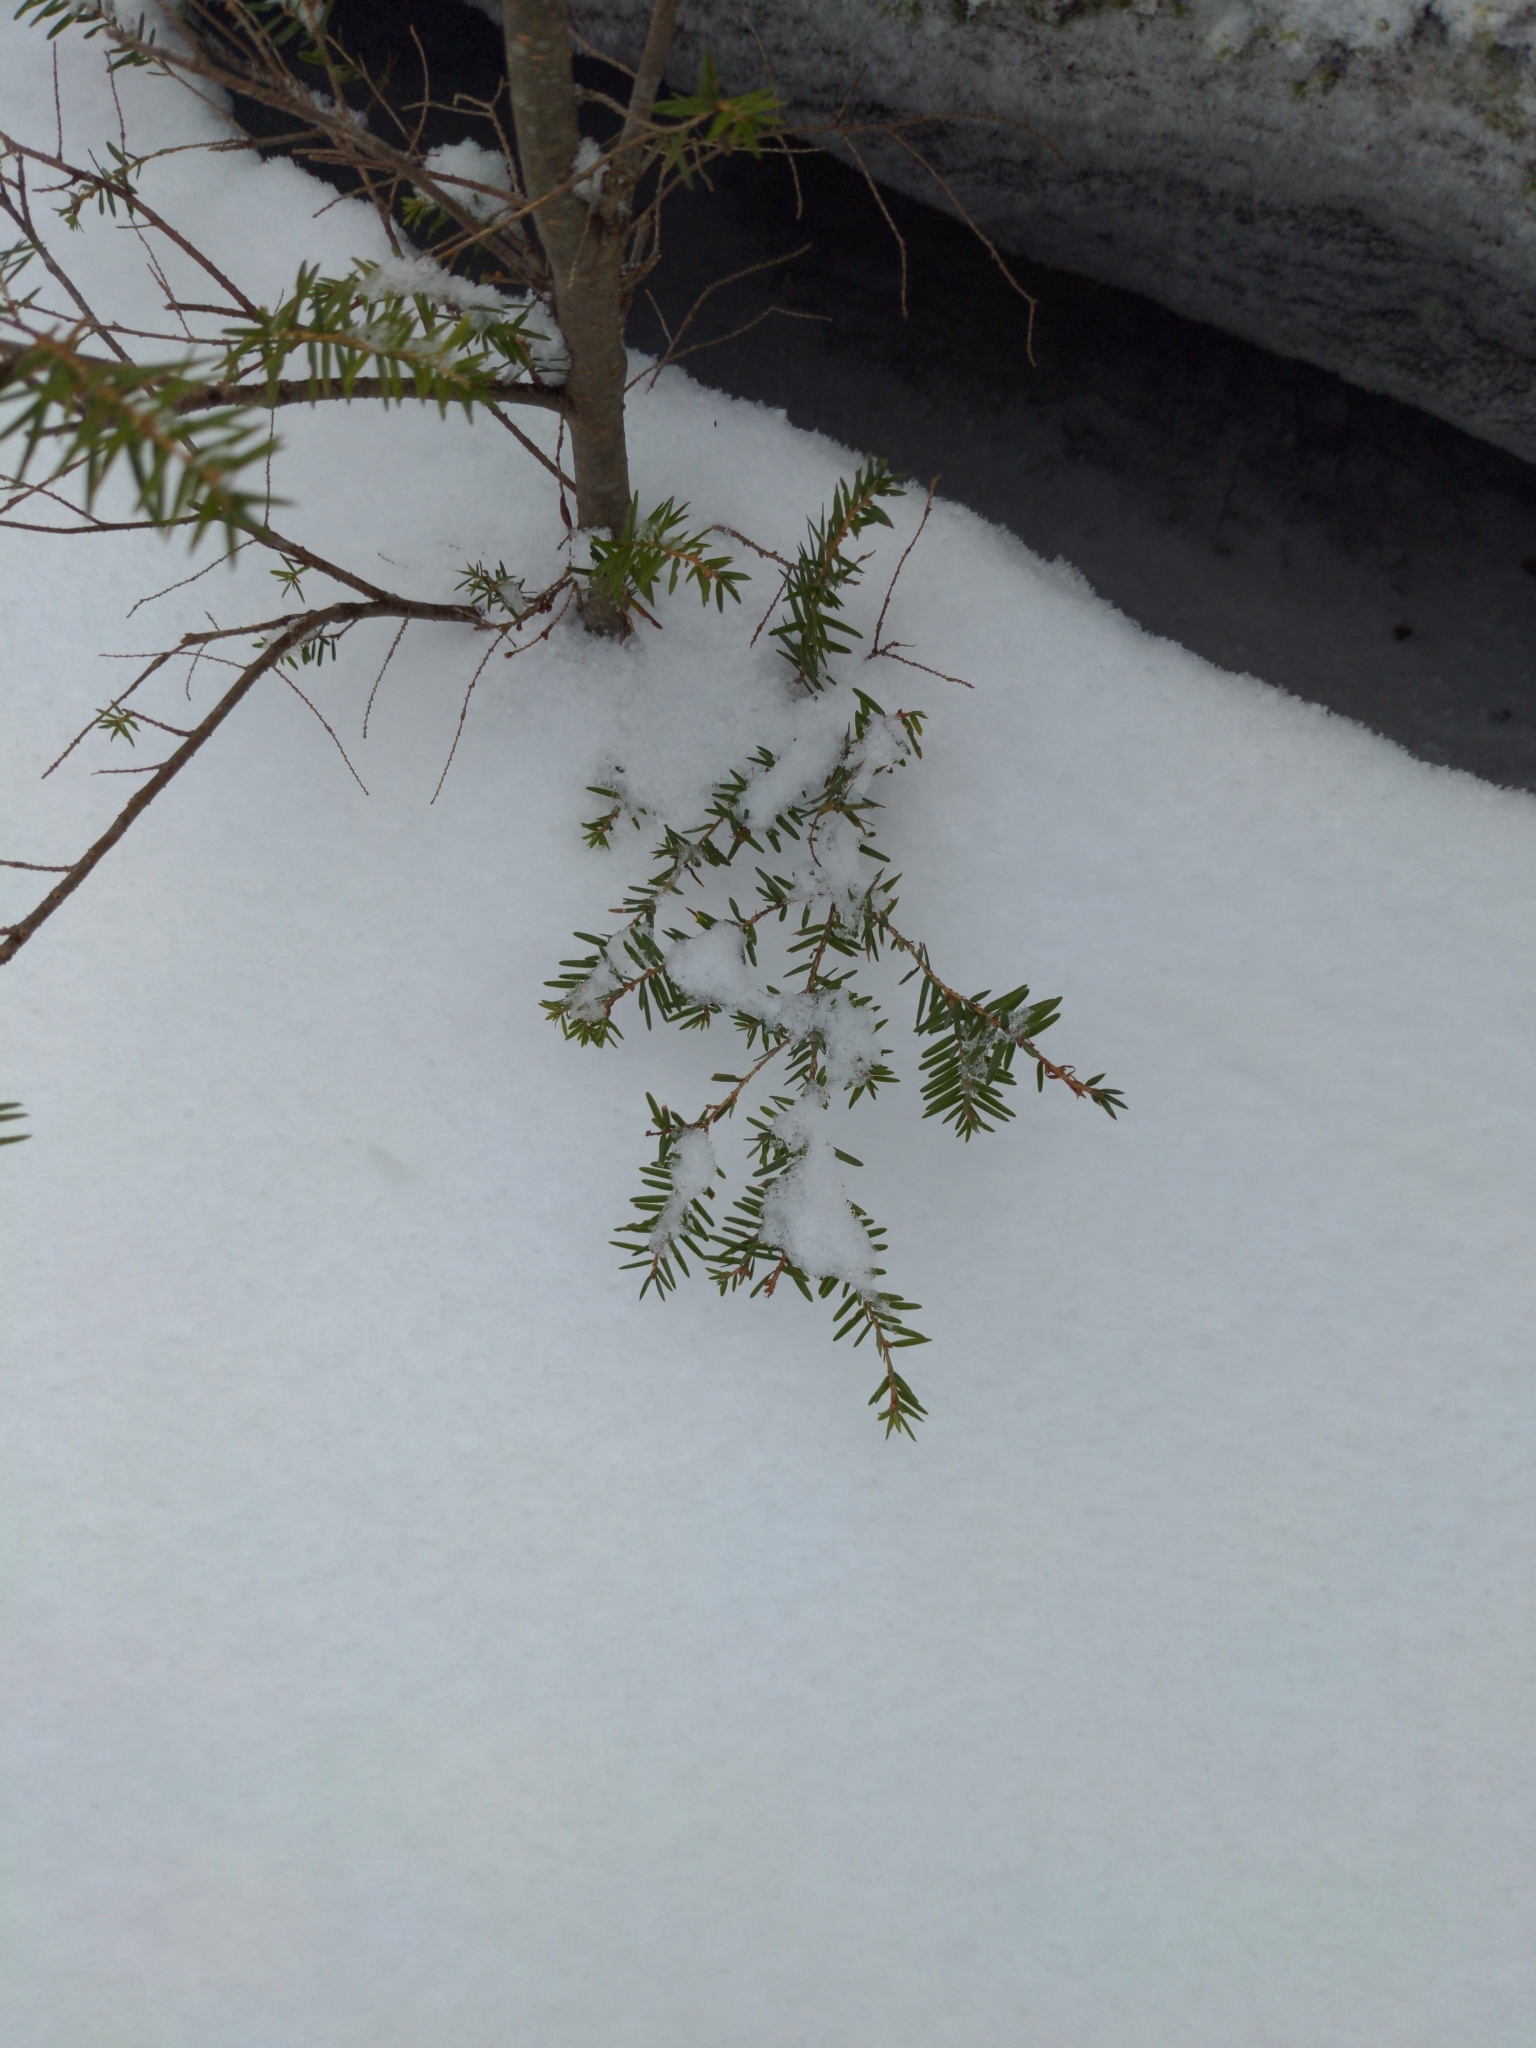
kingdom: Plantae
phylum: Tracheophyta
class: Pinopsida
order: Pinales
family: Pinaceae
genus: Tsuga
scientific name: Tsuga canadensis
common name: Eastern hemlock
